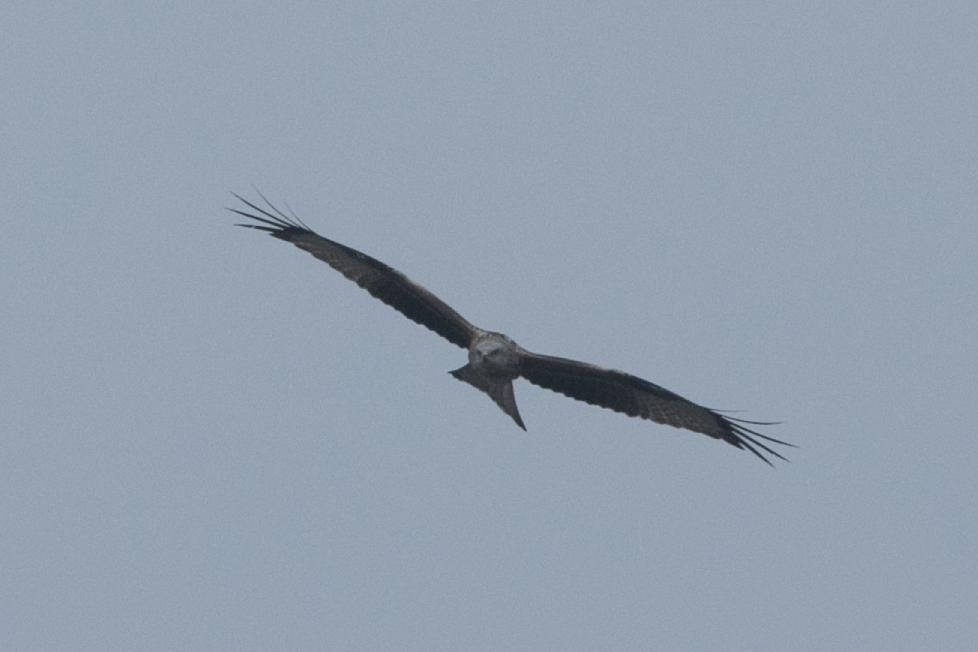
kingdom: Animalia
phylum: Chordata
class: Aves
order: Accipitriformes
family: Accipitridae
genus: Milvus
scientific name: Milvus milvus
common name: Red kite
